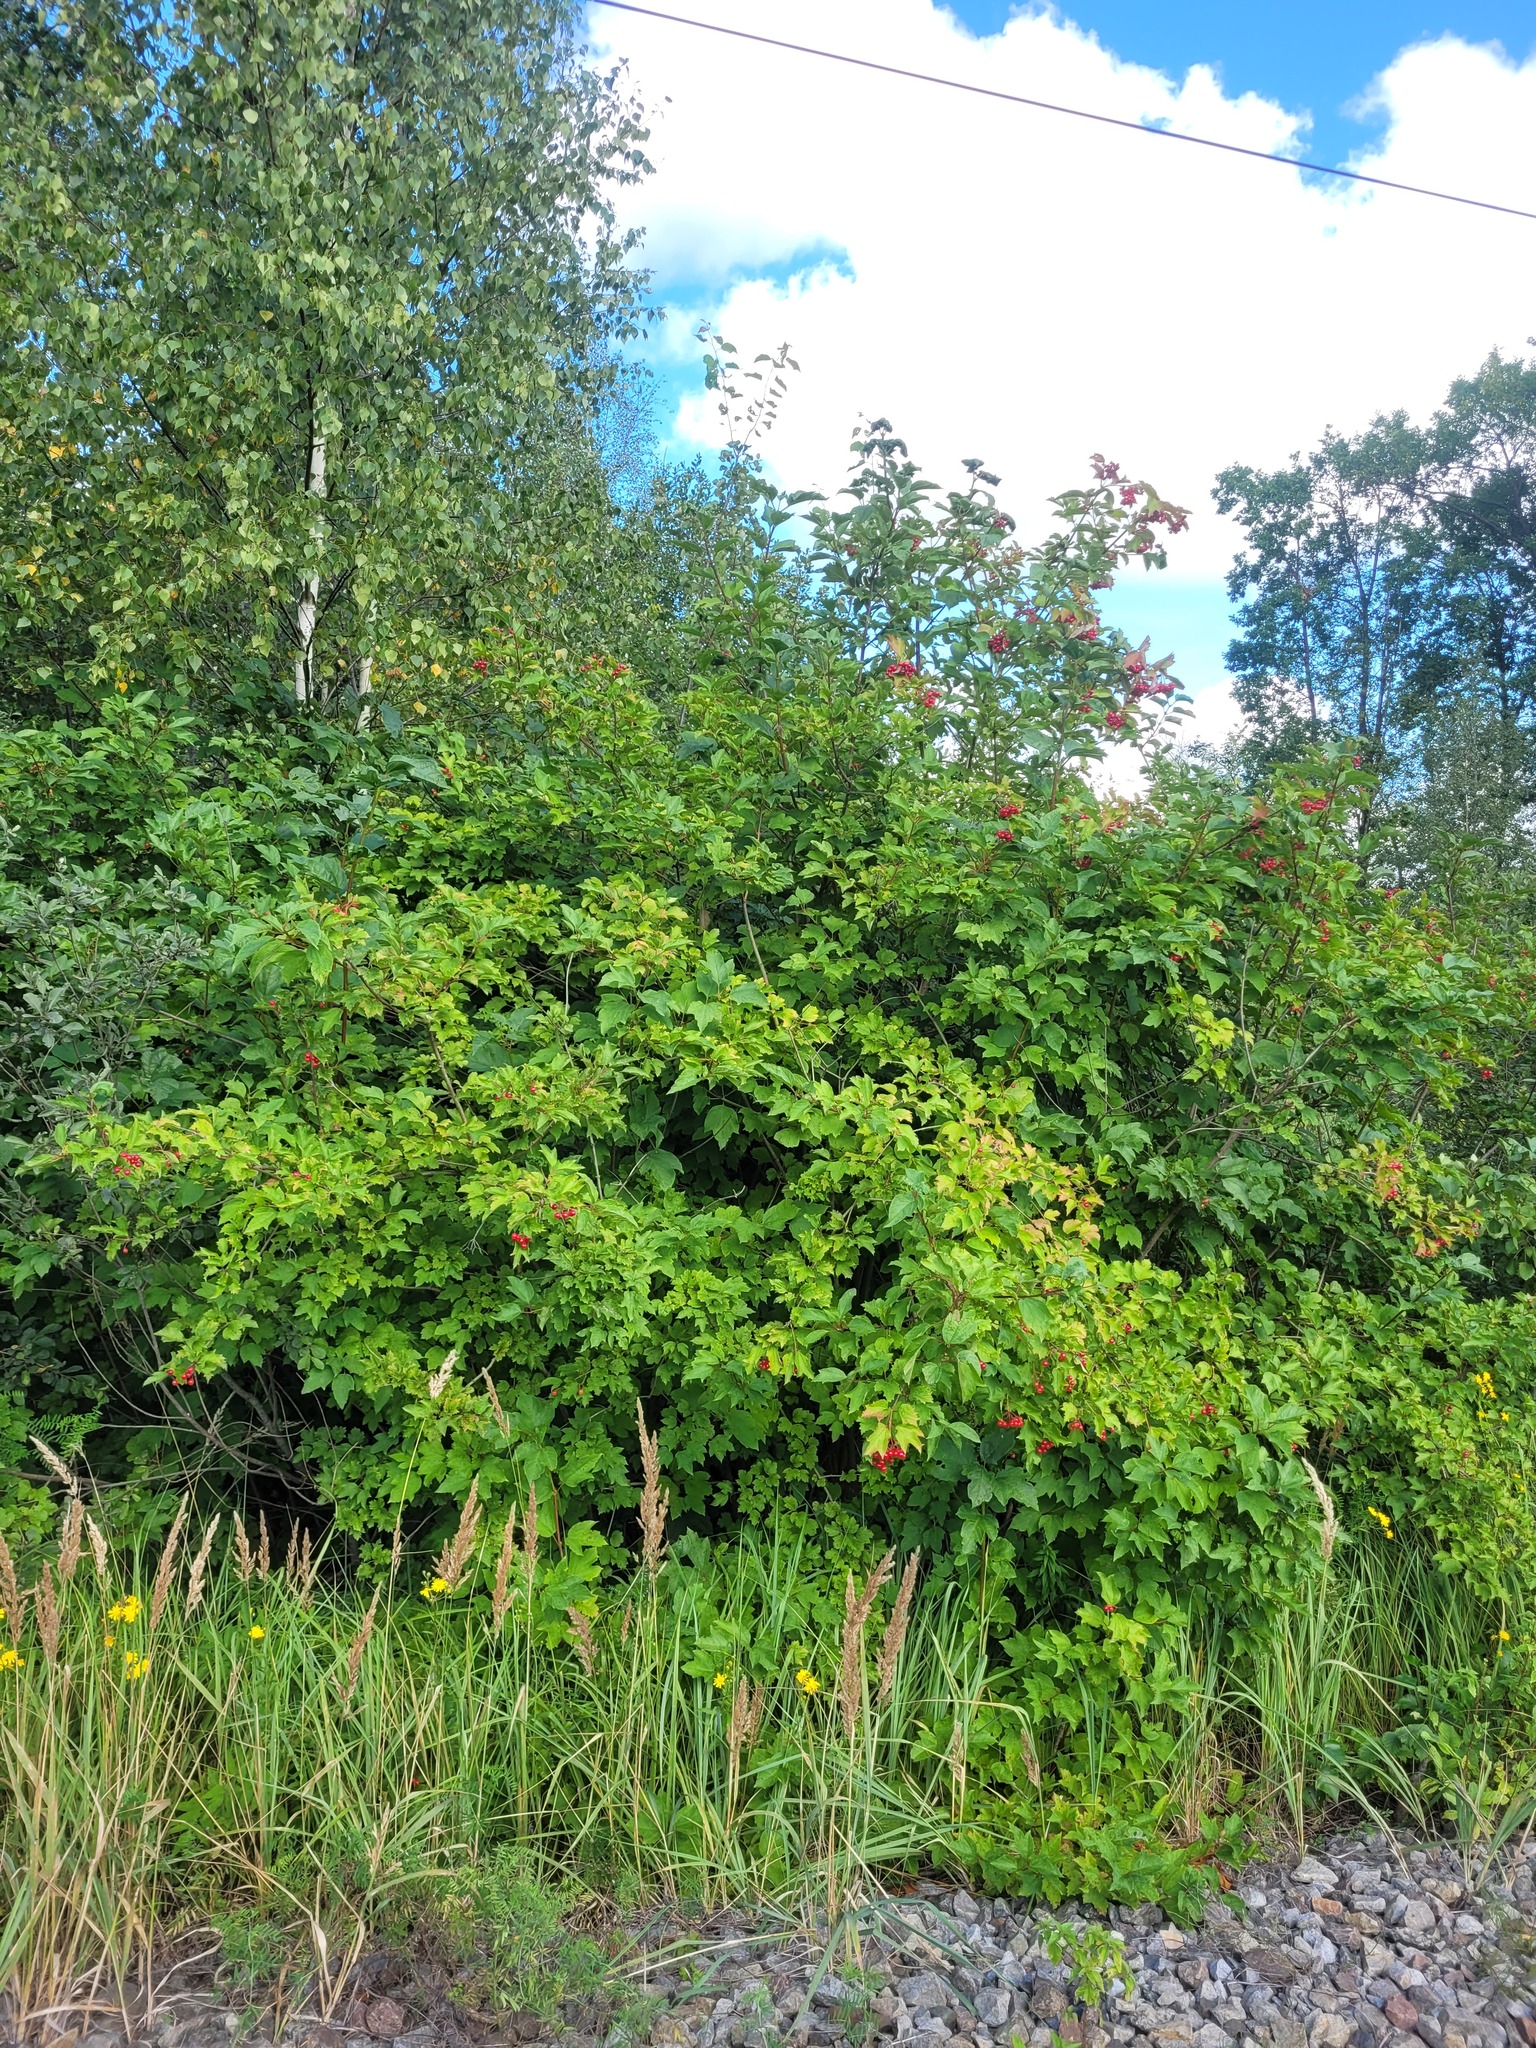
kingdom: Plantae
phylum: Tracheophyta
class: Magnoliopsida
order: Dipsacales
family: Viburnaceae
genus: Viburnum
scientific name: Viburnum opulus
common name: Guelder-rose
